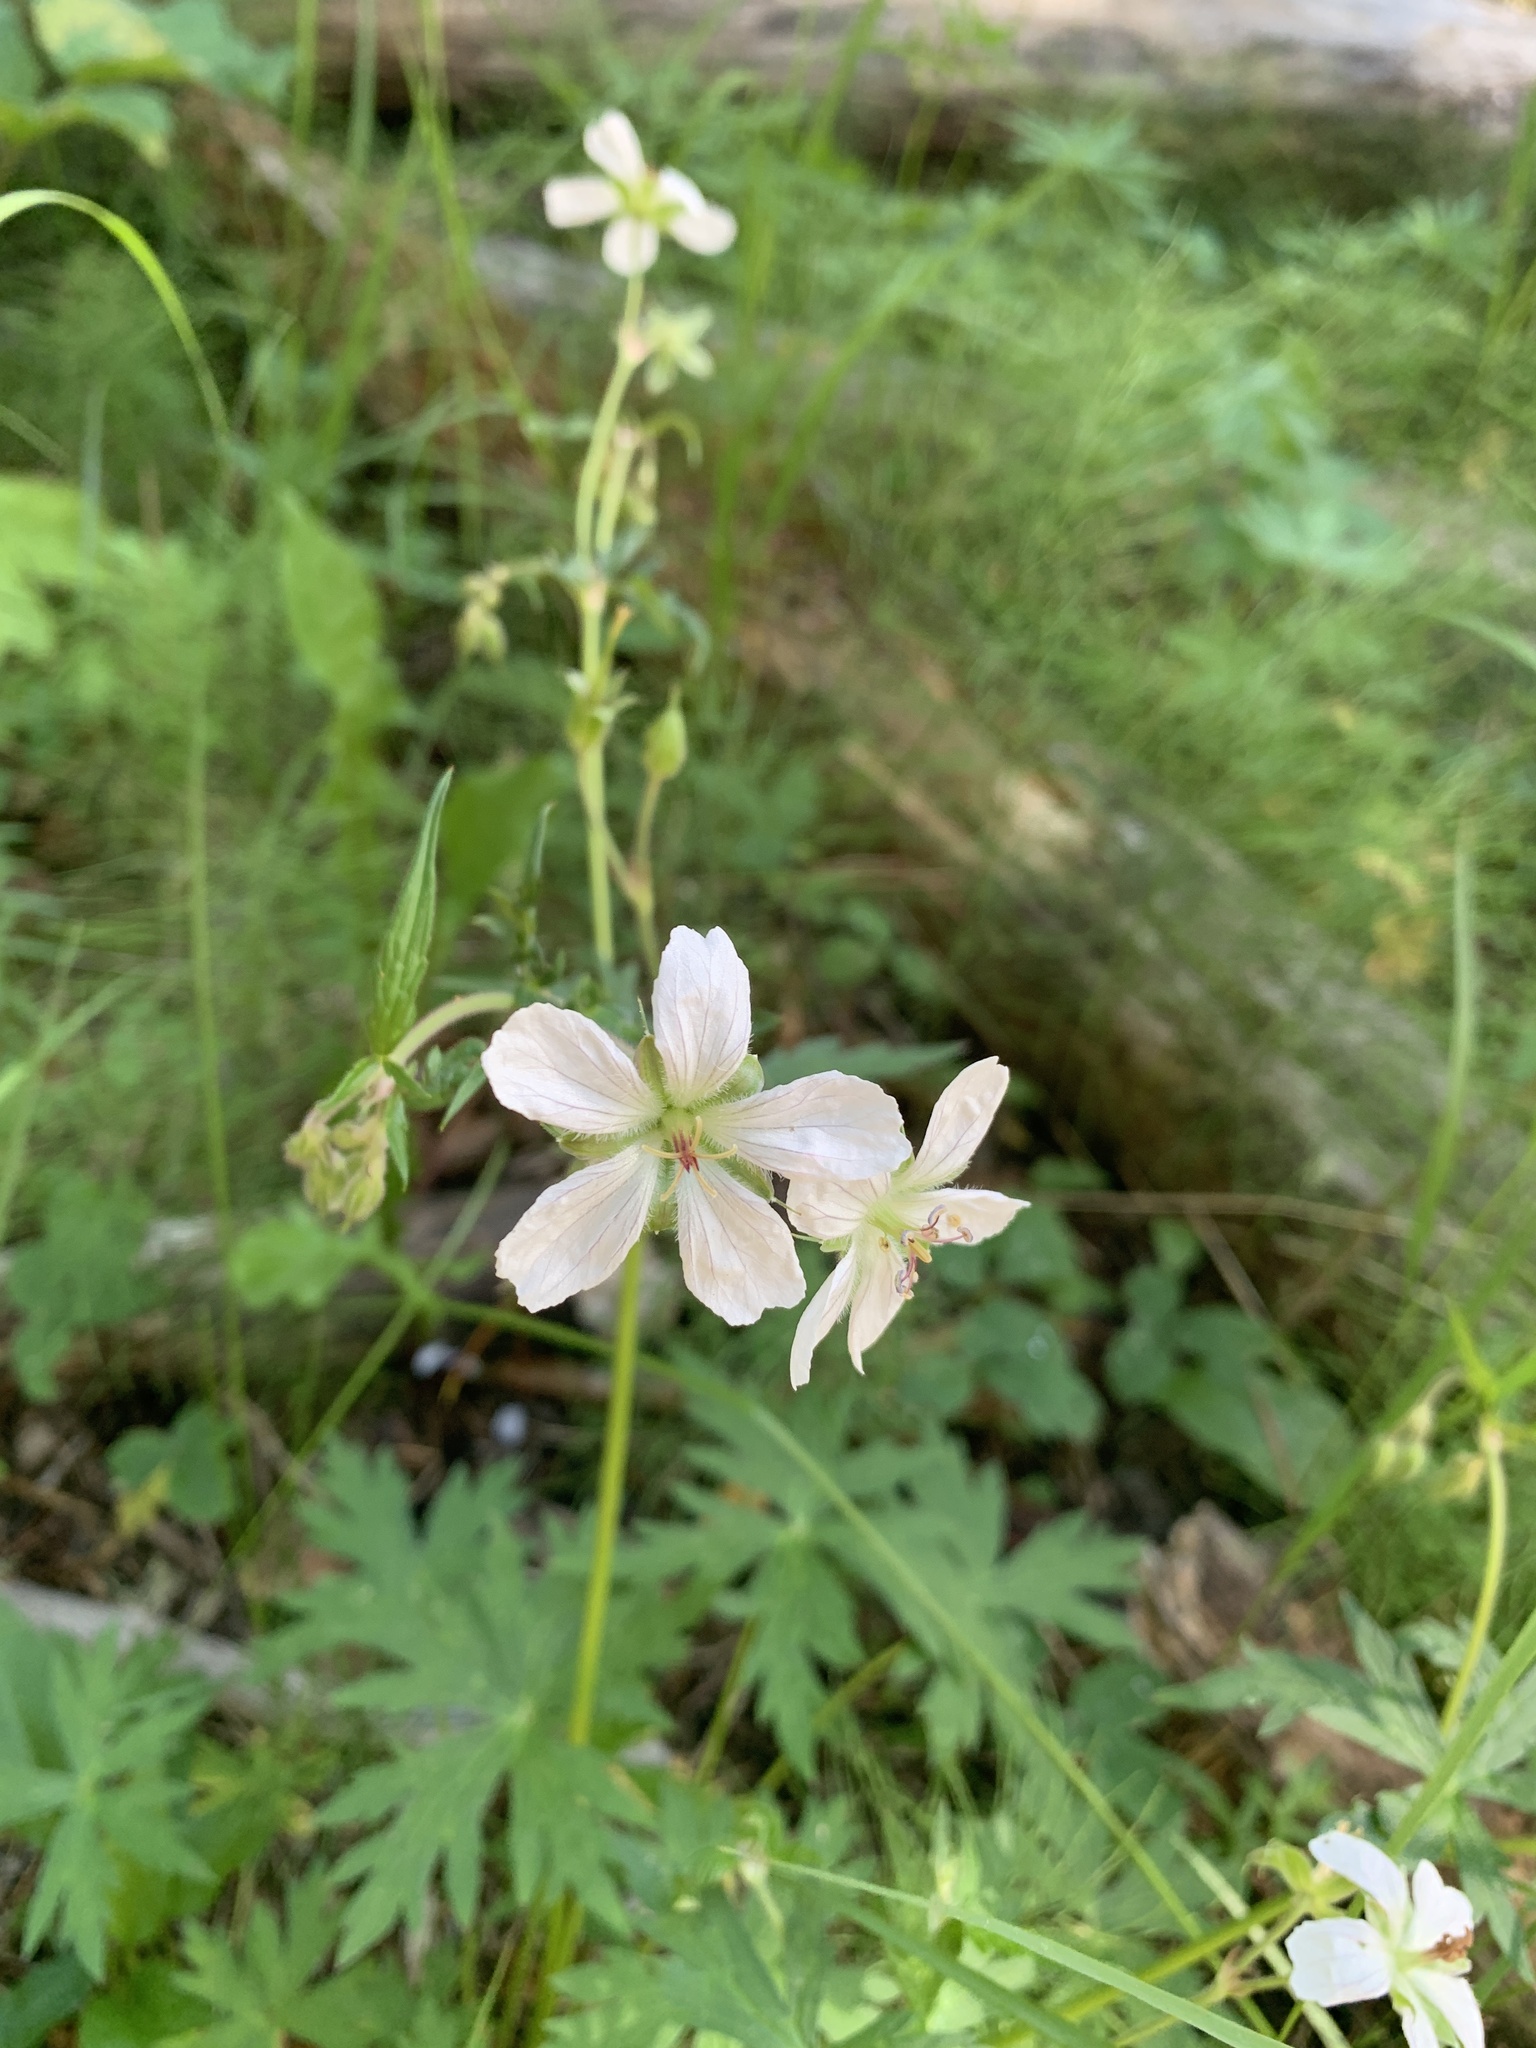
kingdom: Plantae
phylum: Tracheophyta
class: Magnoliopsida
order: Geraniales
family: Geraniaceae
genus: Geranium
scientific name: Geranium richardsonii
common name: Richardson's crane's-bill
